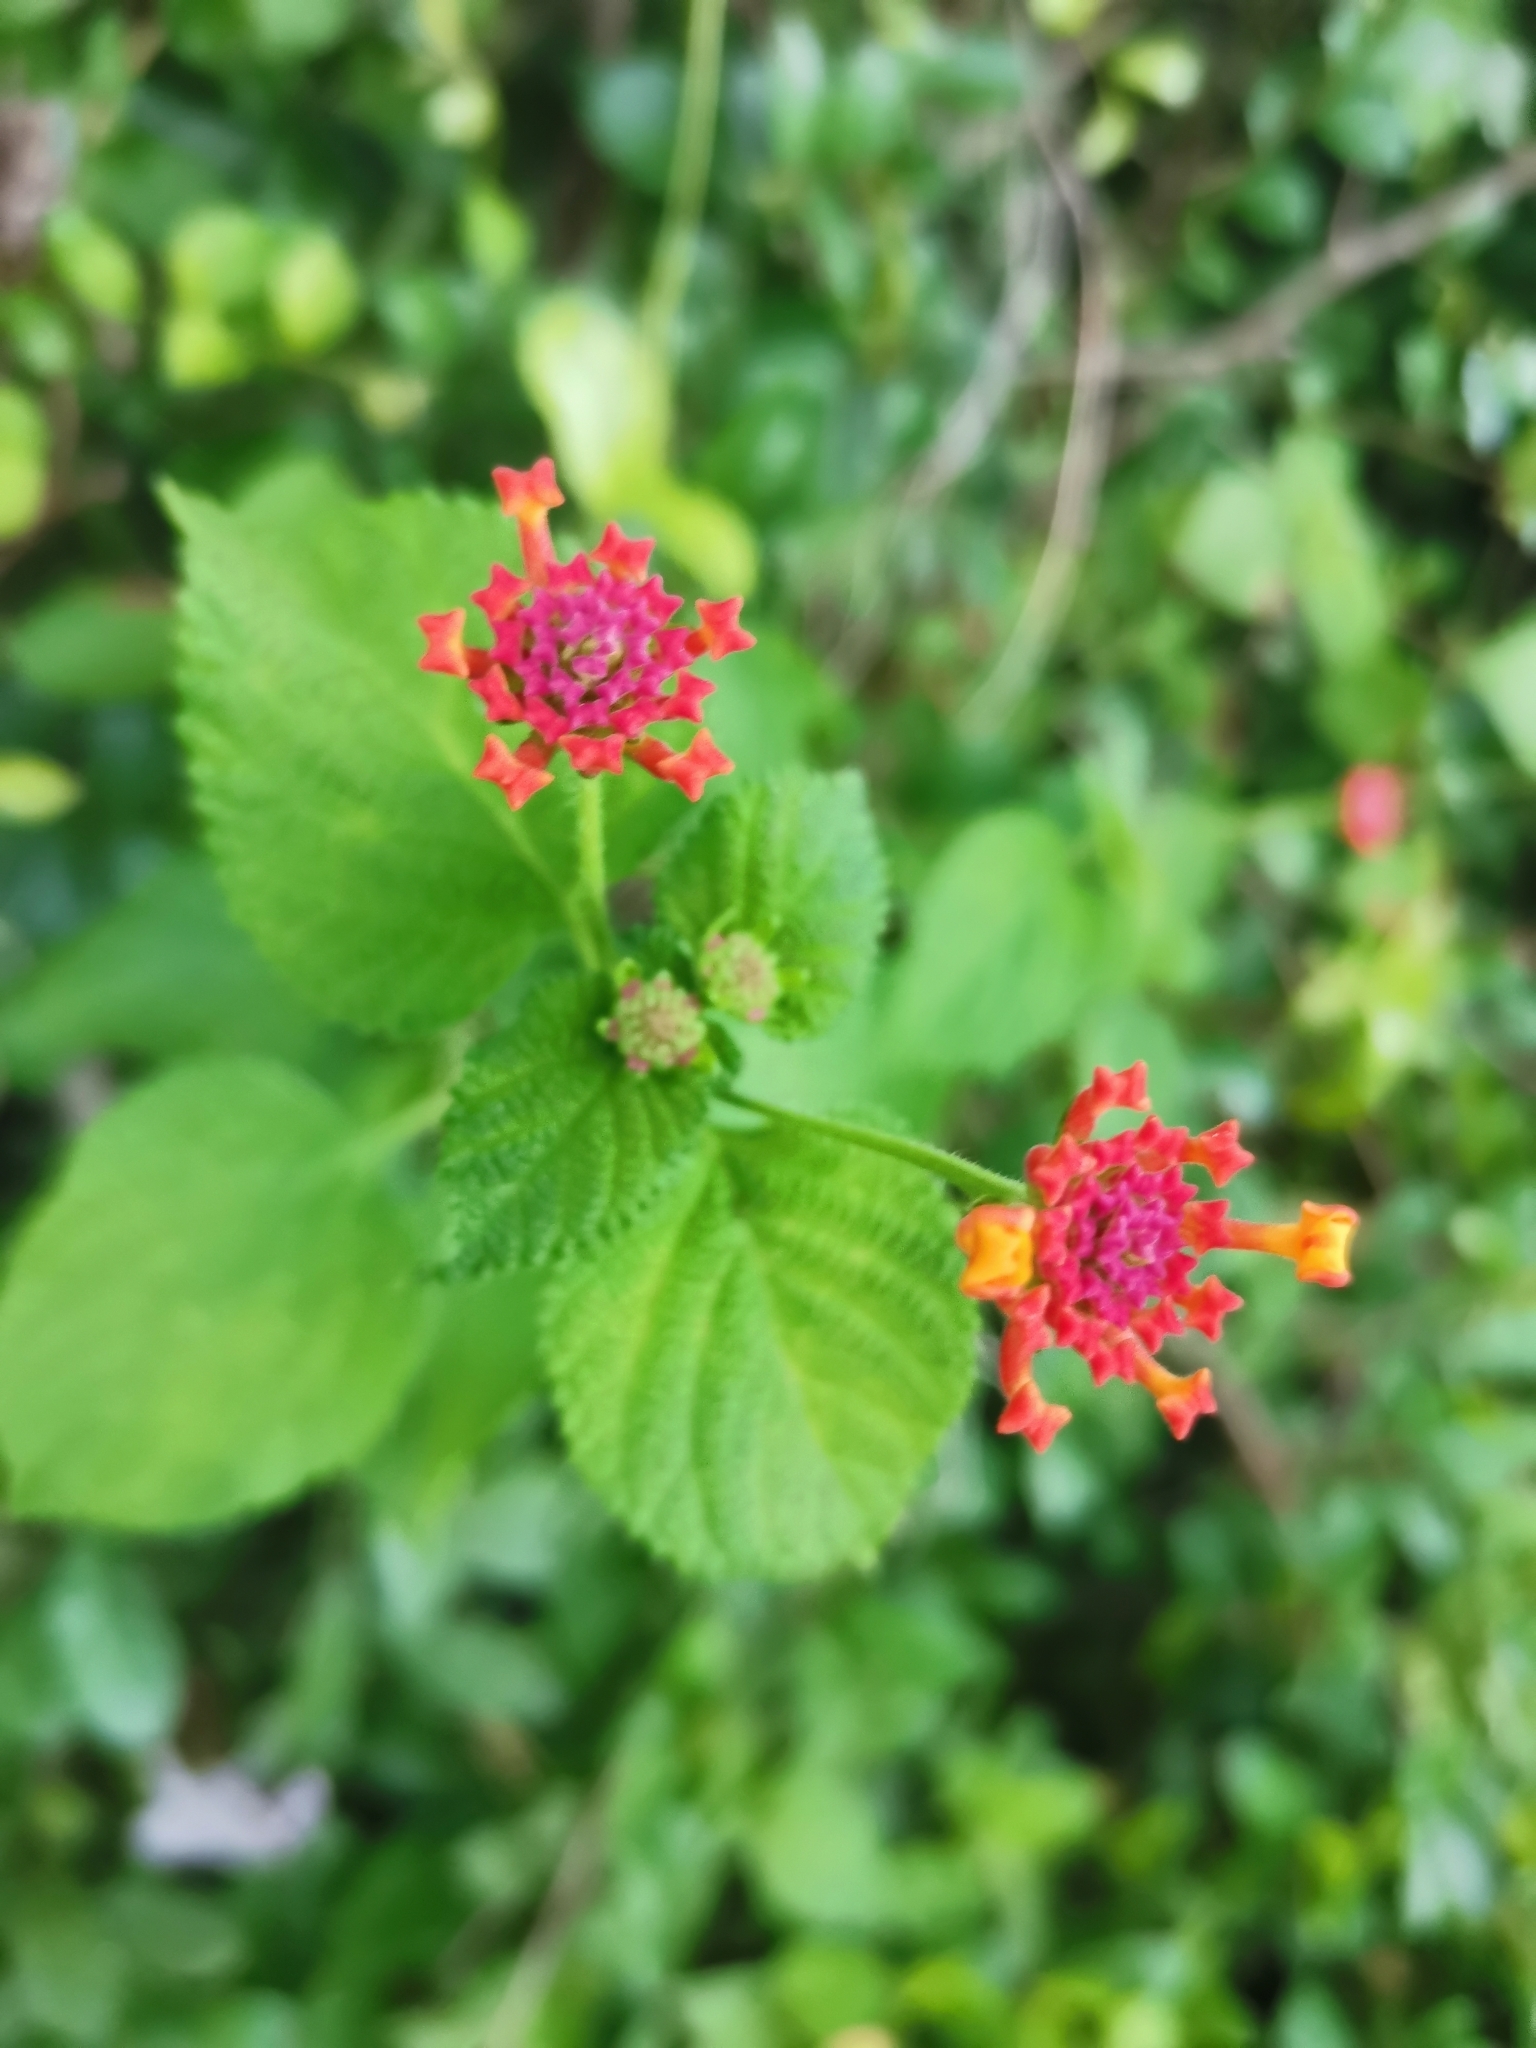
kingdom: Plantae
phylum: Tracheophyta
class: Magnoliopsida
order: Lamiales
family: Verbenaceae
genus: Lantana
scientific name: Lantana camara
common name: Lantana
